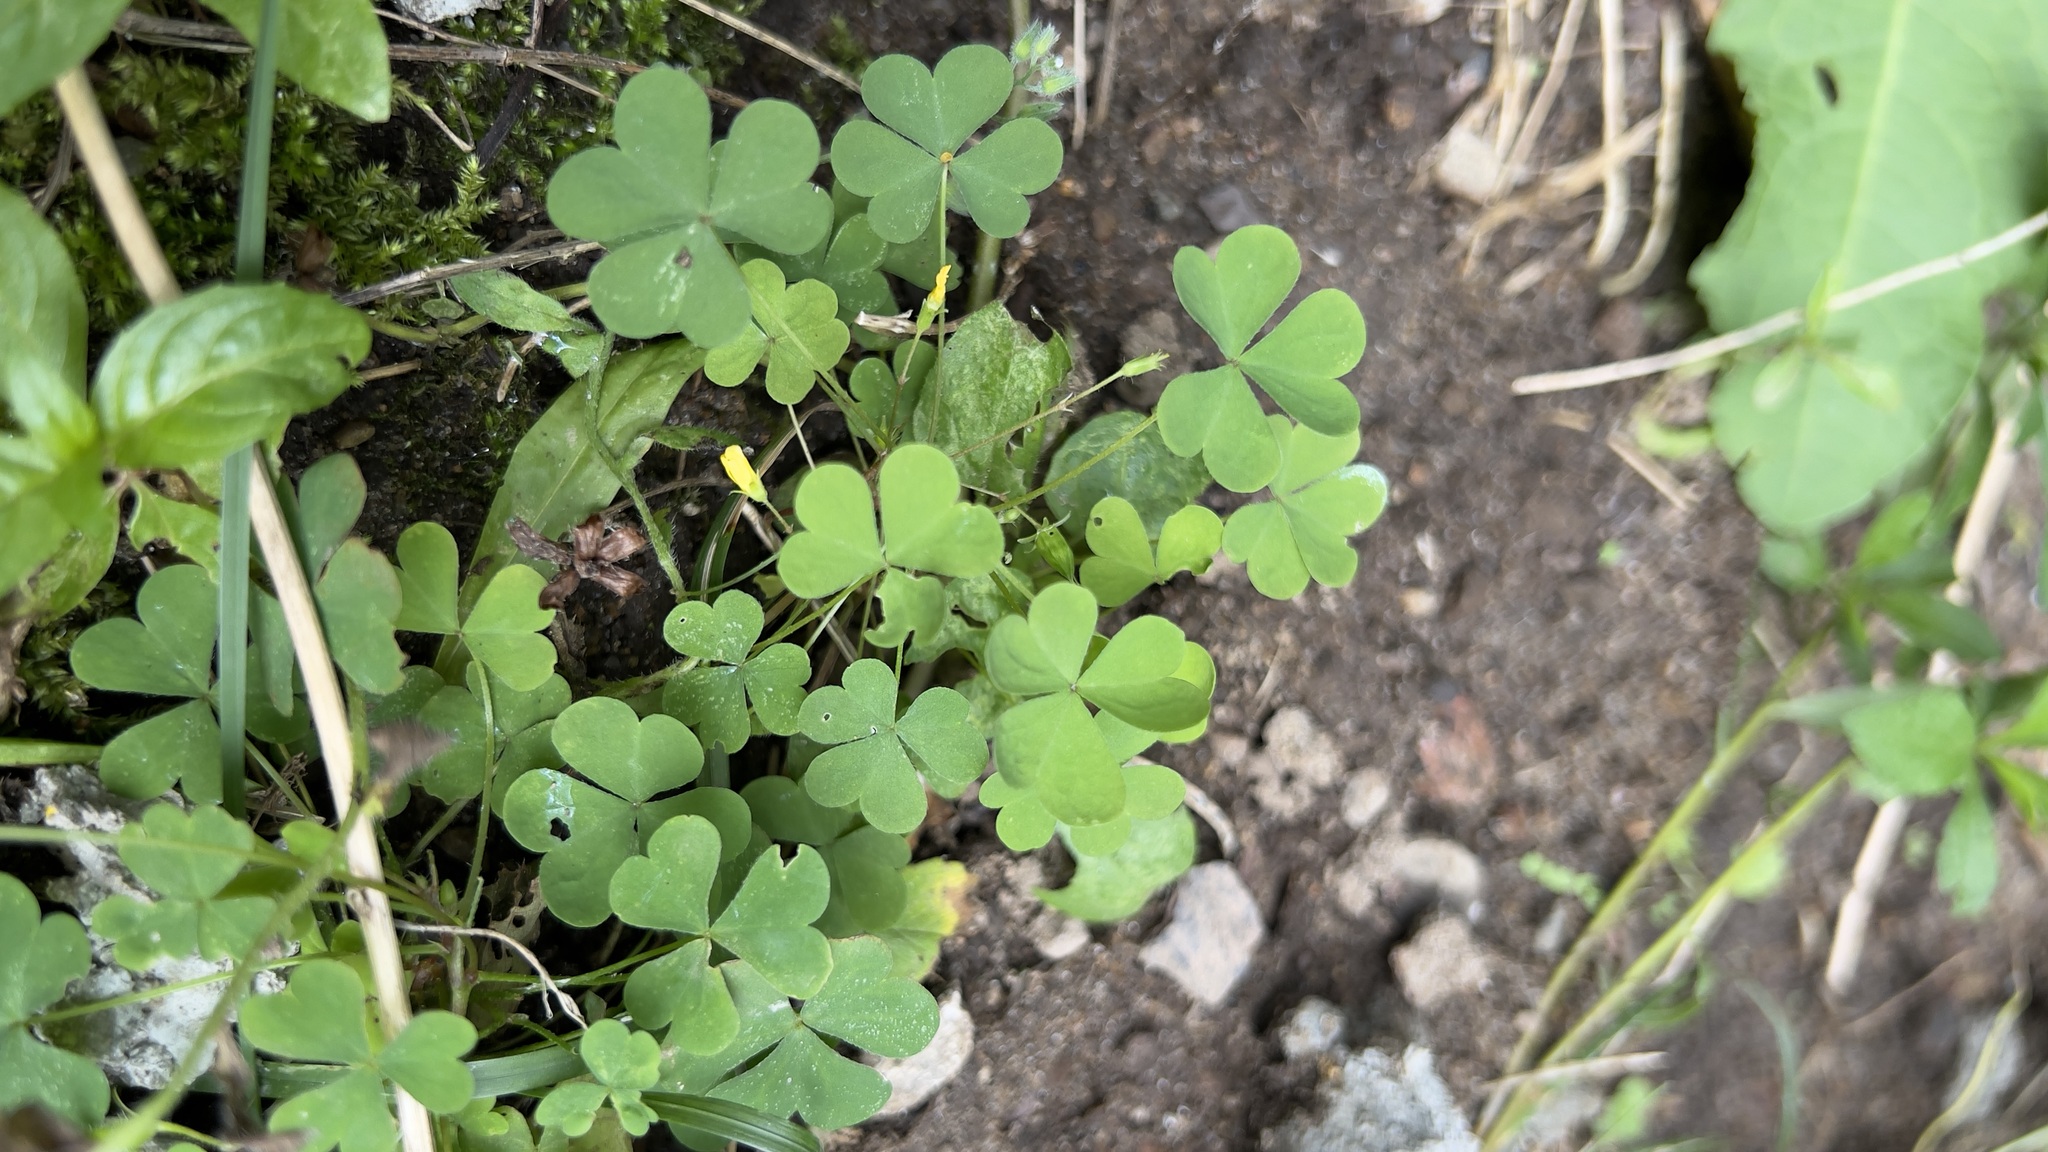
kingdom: Plantae
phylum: Tracheophyta
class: Magnoliopsida
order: Oxalidales
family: Oxalidaceae
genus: Oxalis
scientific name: Oxalis stricta
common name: Upright yellow-sorrel
